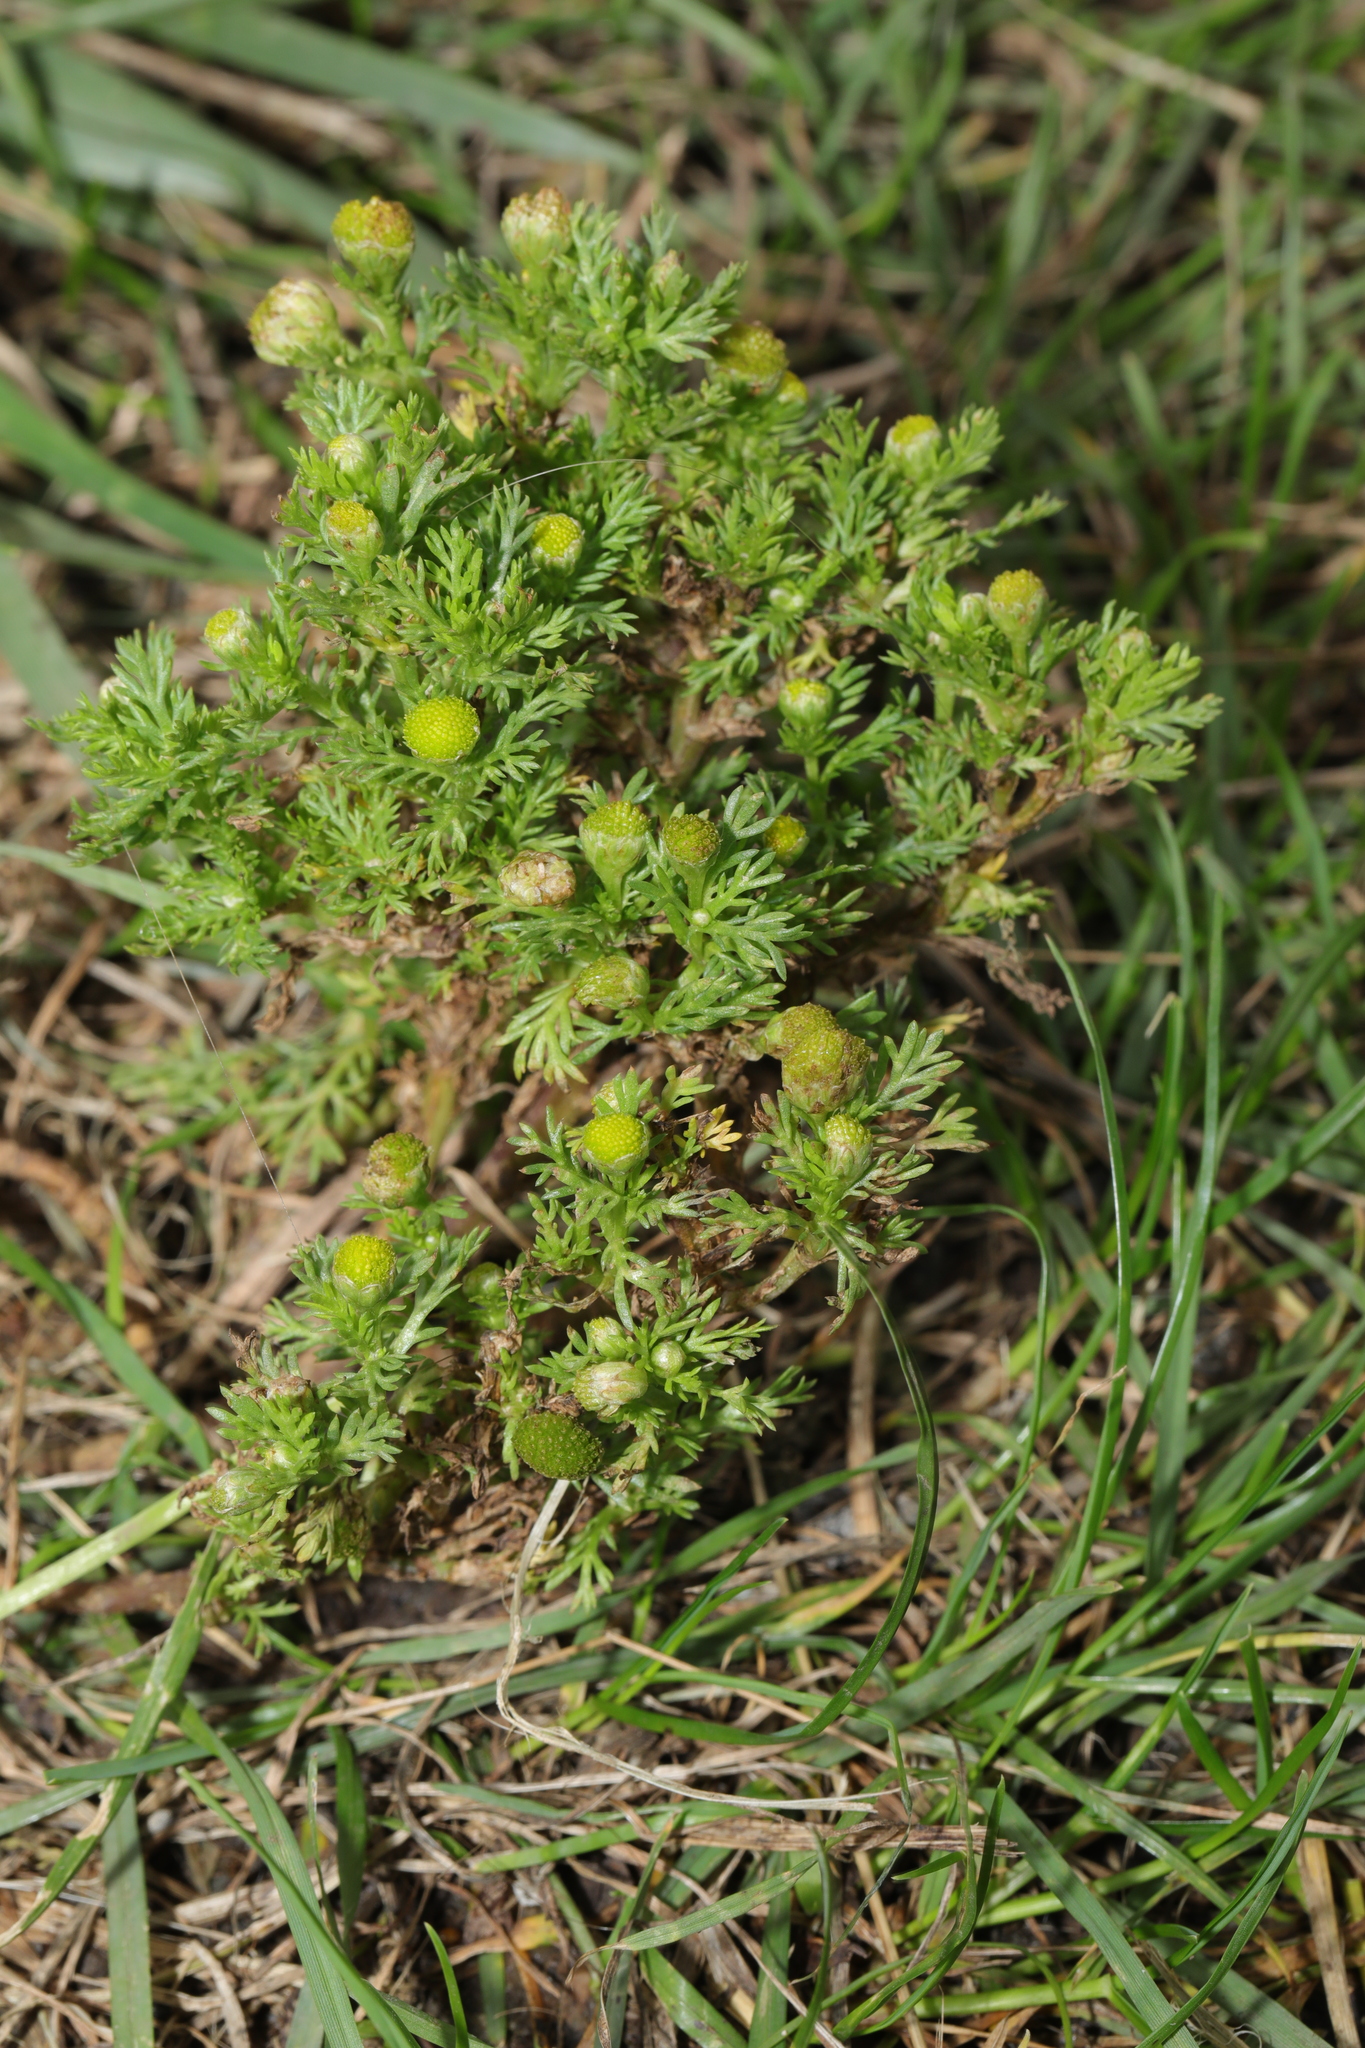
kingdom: Plantae
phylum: Tracheophyta
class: Magnoliopsida
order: Asterales
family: Asteraceae
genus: Matricaria
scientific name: Matricaria discoidea
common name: Disc mayweed
